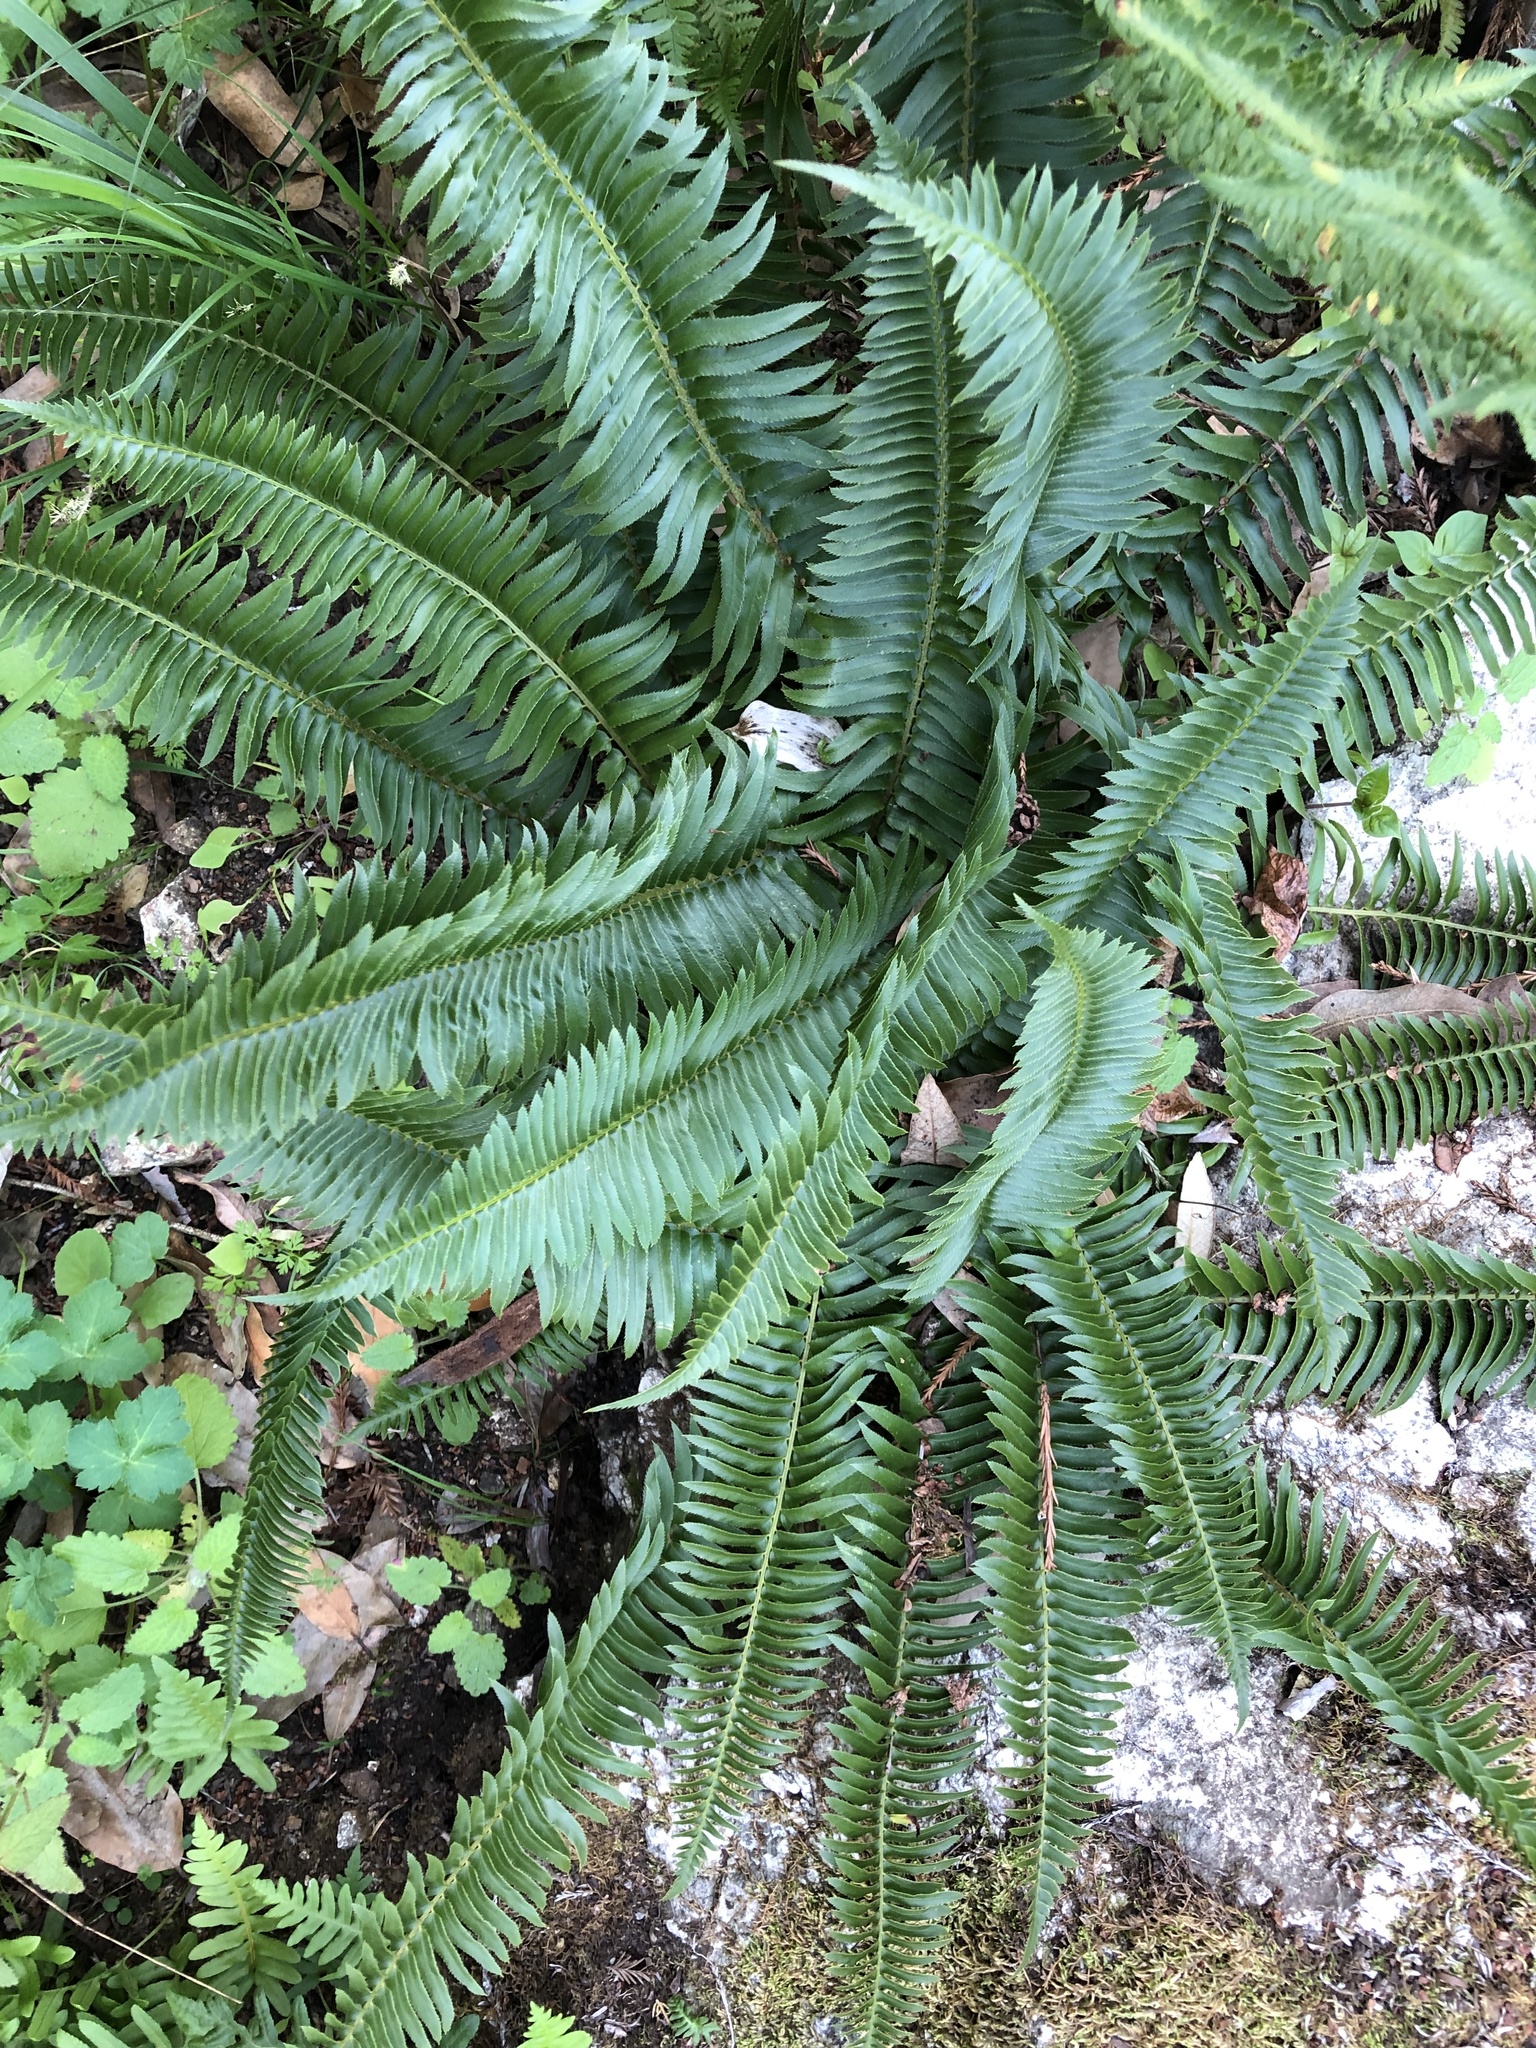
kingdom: Plantae
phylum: Tracheophyta
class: Polypodiopsida
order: Polypodiales
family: Dryopteridaceae
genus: Polystichum
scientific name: Polystichum munitum
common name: Western sword-fern
